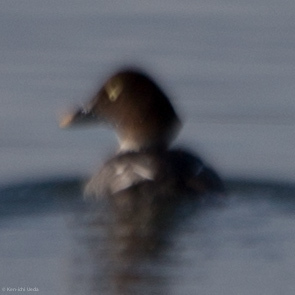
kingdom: Animalia
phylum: Chordata
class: Aves
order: Anseriformes
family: Anatidae
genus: Bucephala
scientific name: Bucephala clangula
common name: Common goldeneye
